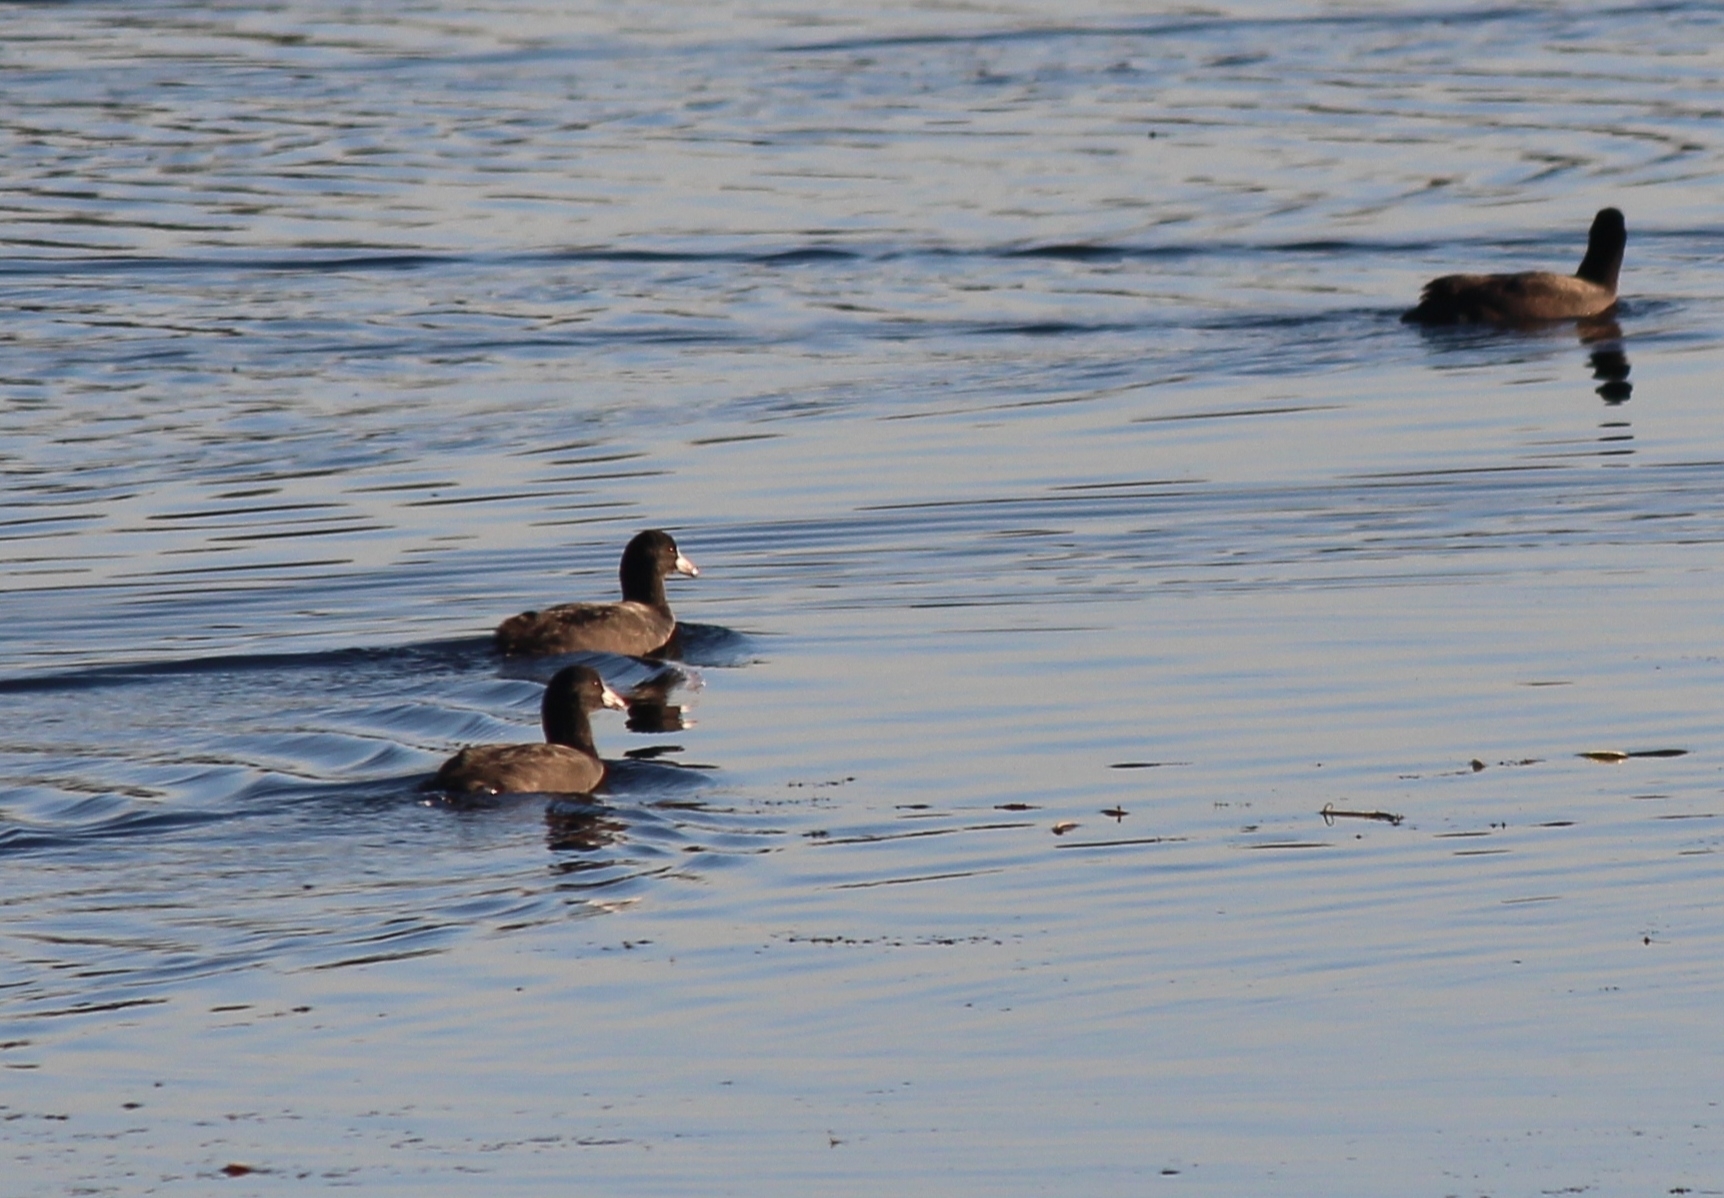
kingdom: Animalia
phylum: Chordata
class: Aves
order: Gruiformes
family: Rallidae
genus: Fulica
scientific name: Fulica atra
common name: Eurasian coot
